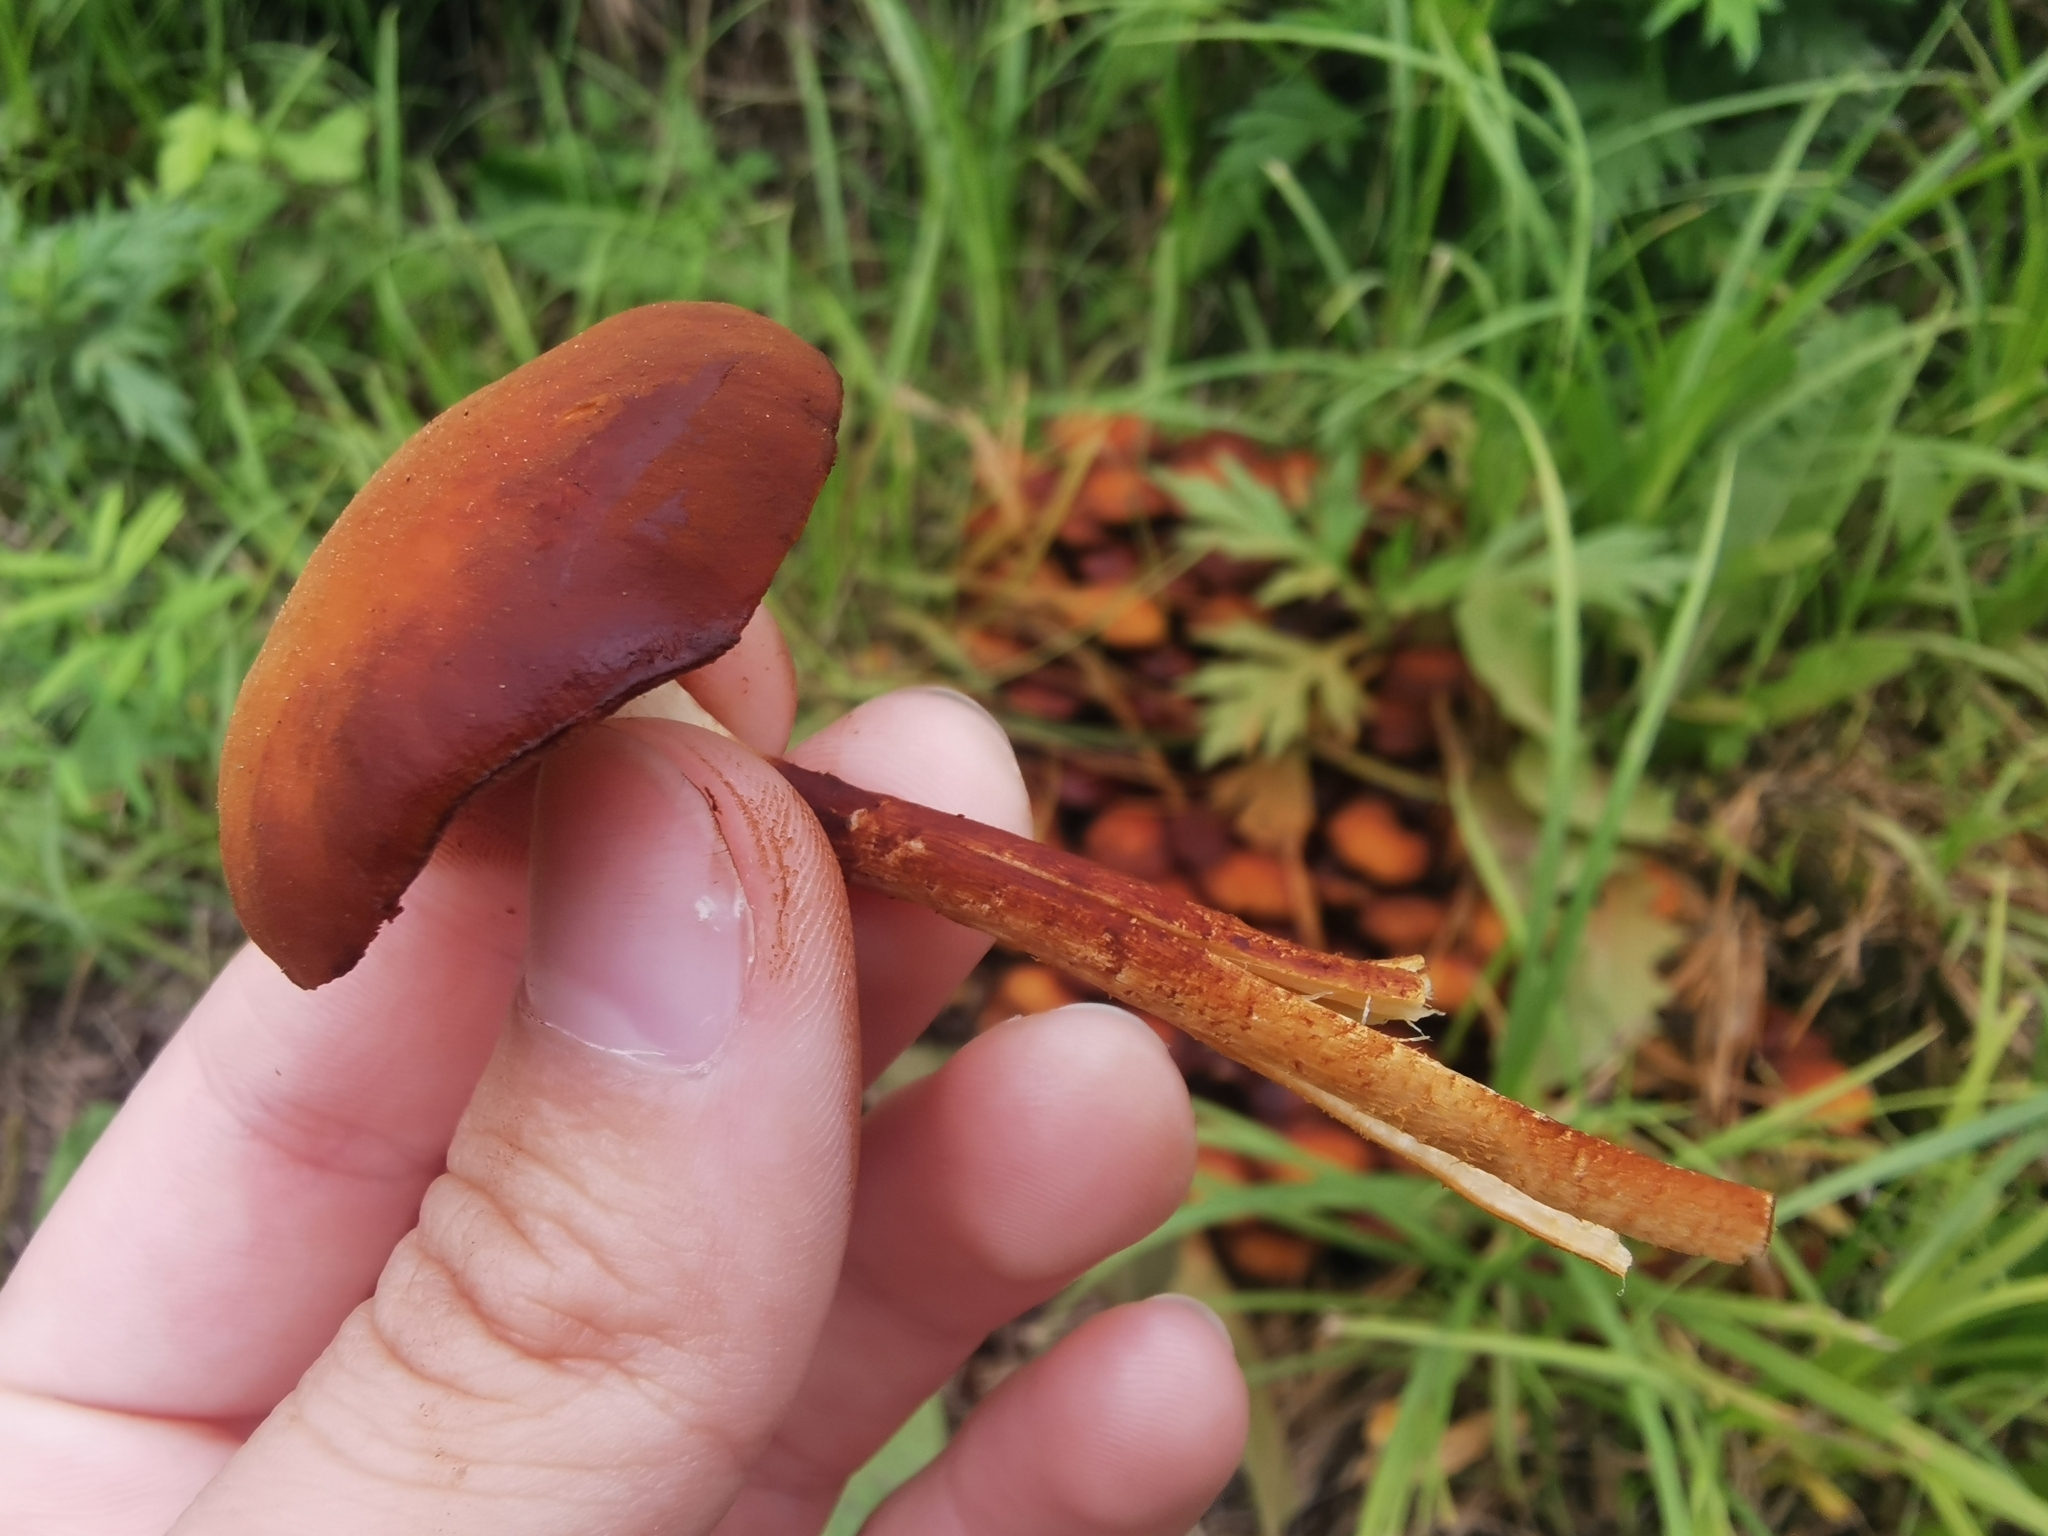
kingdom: Fungi
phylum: Basidiomycota
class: Agaricomycetes
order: Agaricales
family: Psathyrellaceae
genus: Coprinellus
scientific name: Coprinellus micaceus
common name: Glistening ink-cap
